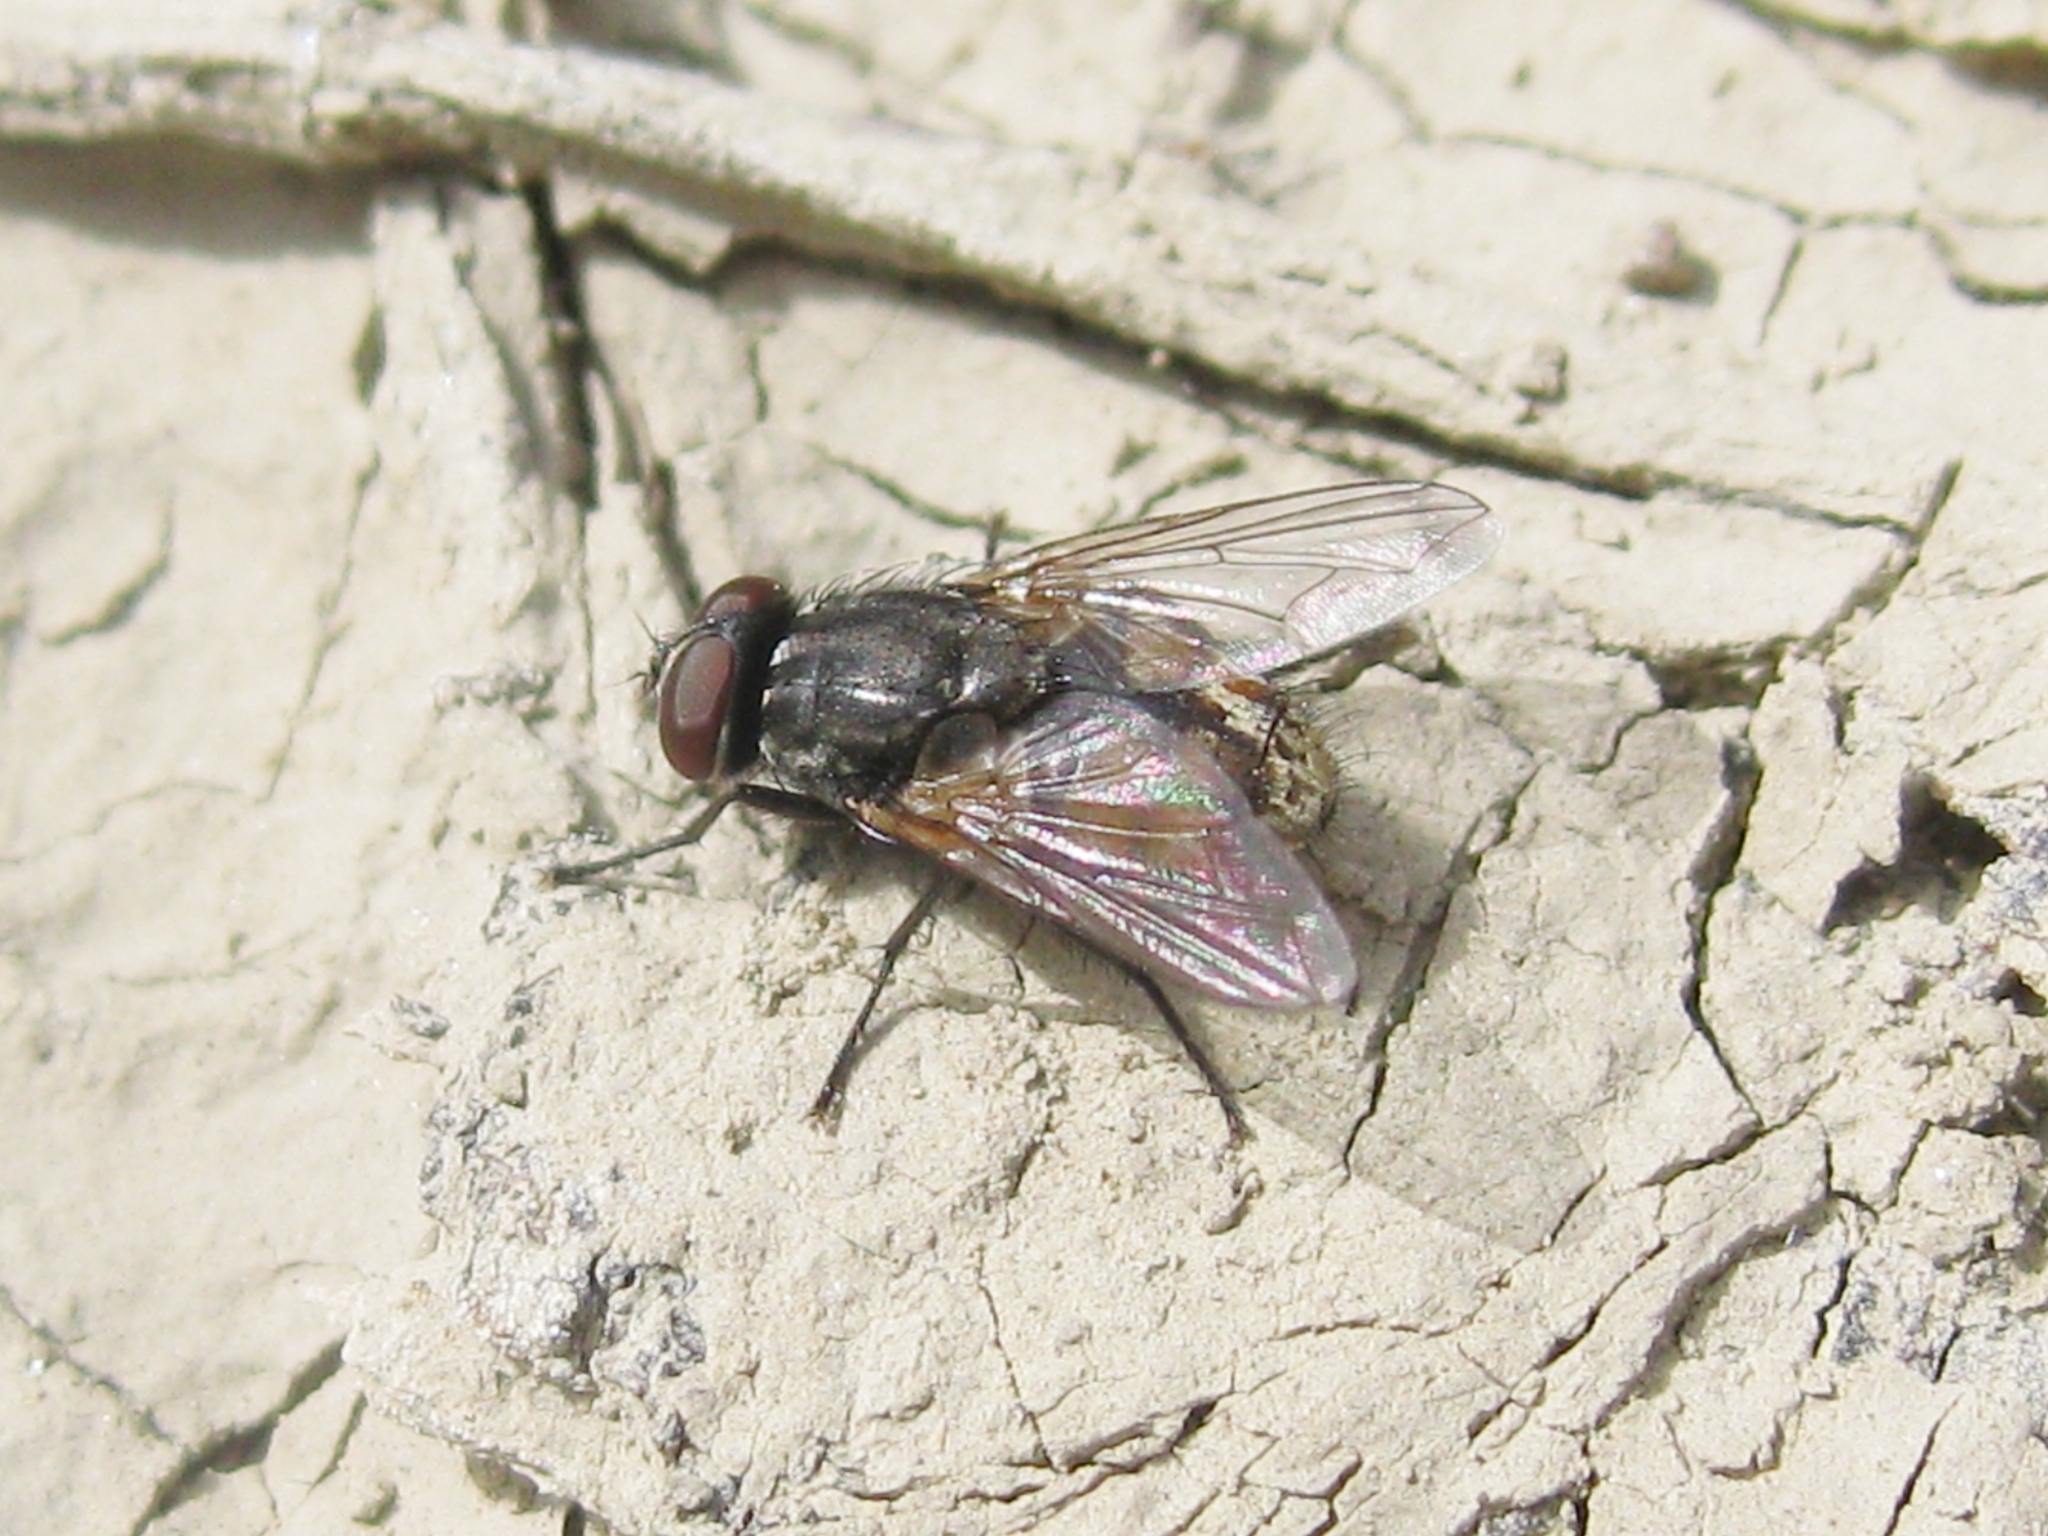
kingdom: Animalia
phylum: Arthropoda
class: Insecta
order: Diptera
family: Muscidae
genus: Musca
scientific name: Musca autumnalis
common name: Face fly
